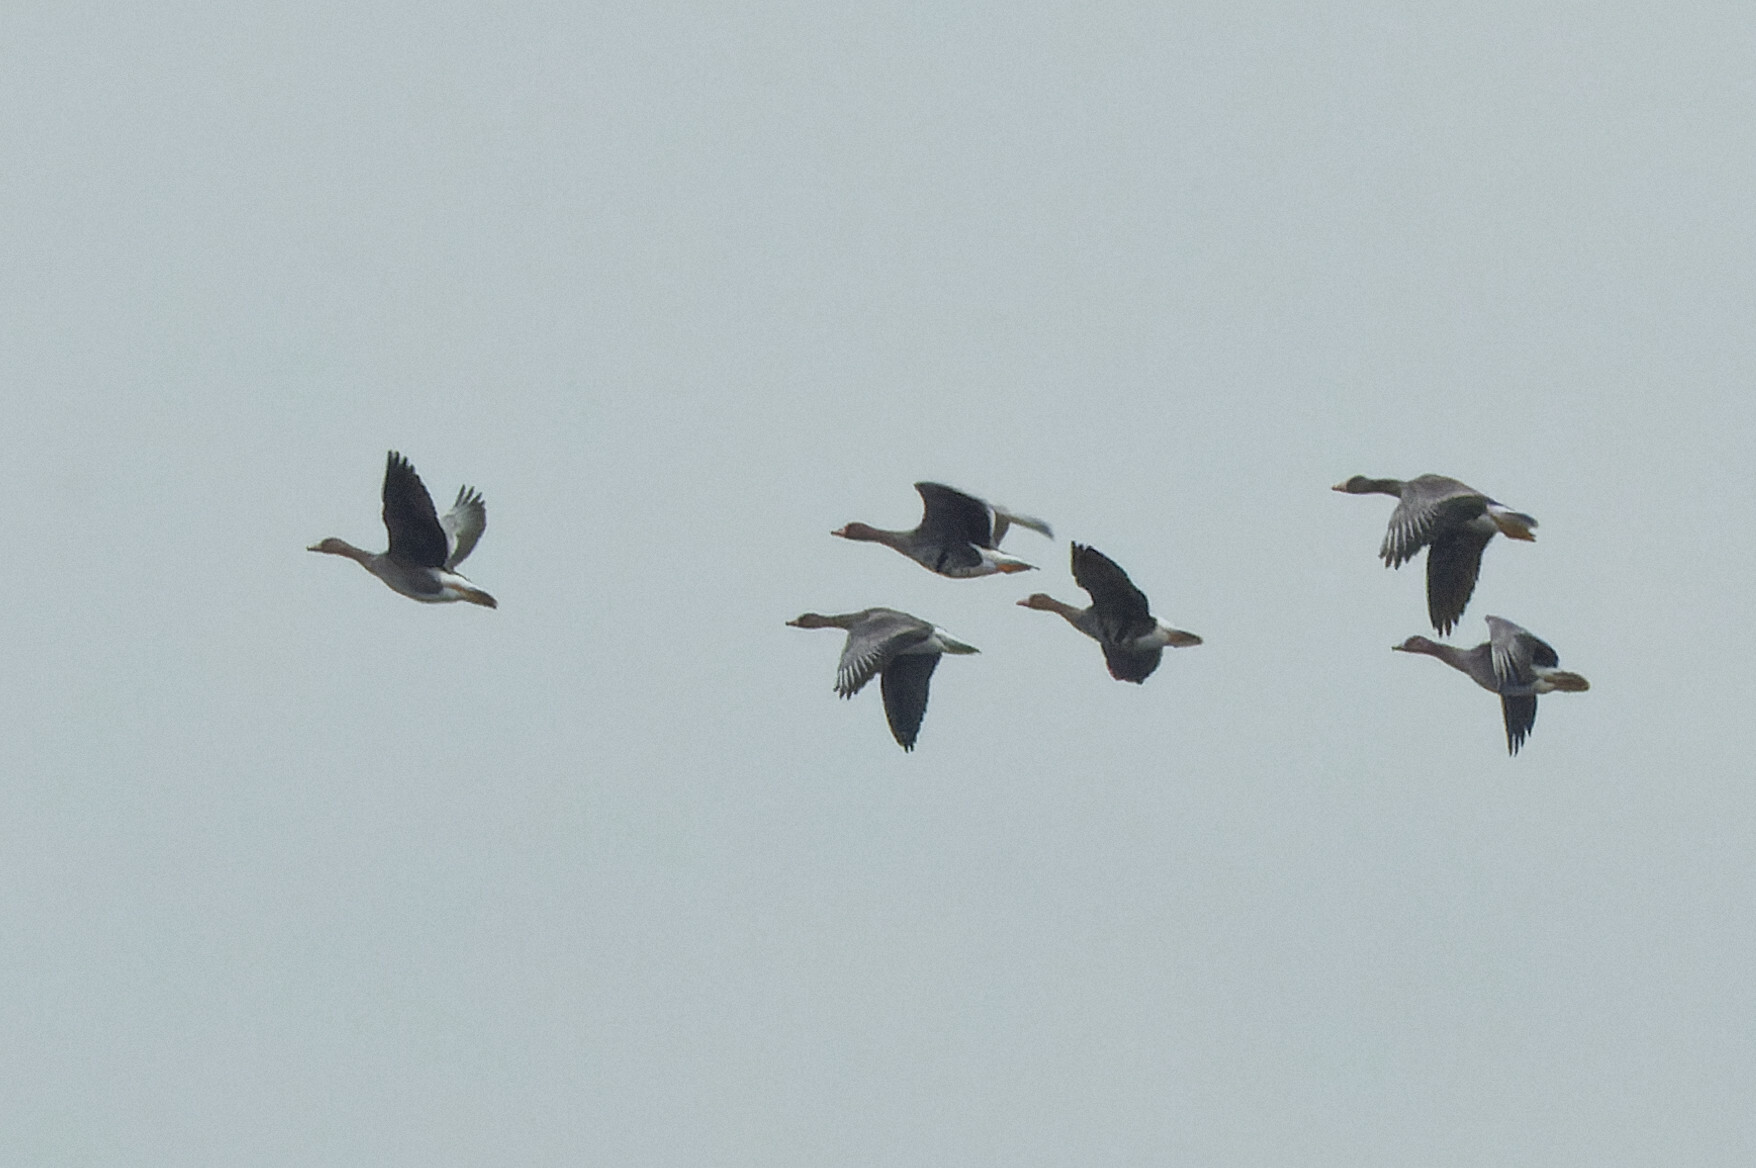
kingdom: Animalia
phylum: Chordata
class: Aves
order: Anseriformes
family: Anatidae
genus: Anser
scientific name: Anser albifrons
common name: Greater white-fronted goose
